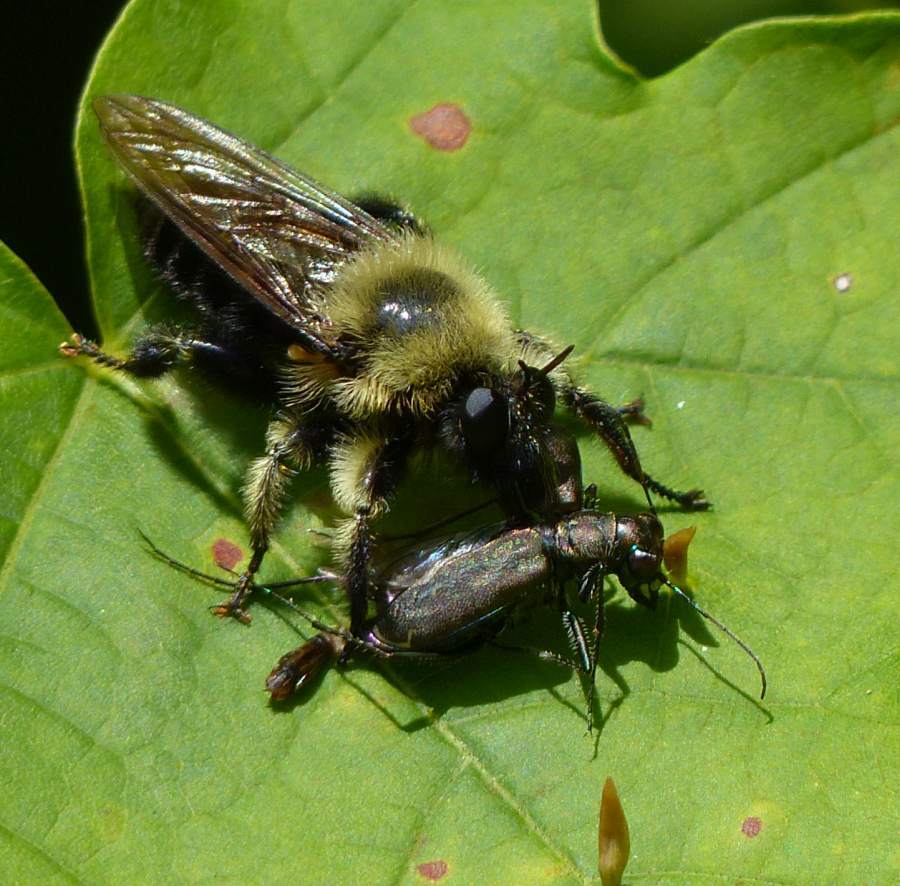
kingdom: Animalia
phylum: Arthropoda
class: Insecta
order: Coleoptera
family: Carabidae
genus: Cicindela
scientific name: Cicindela punctulata
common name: Punctured tiger beetle
